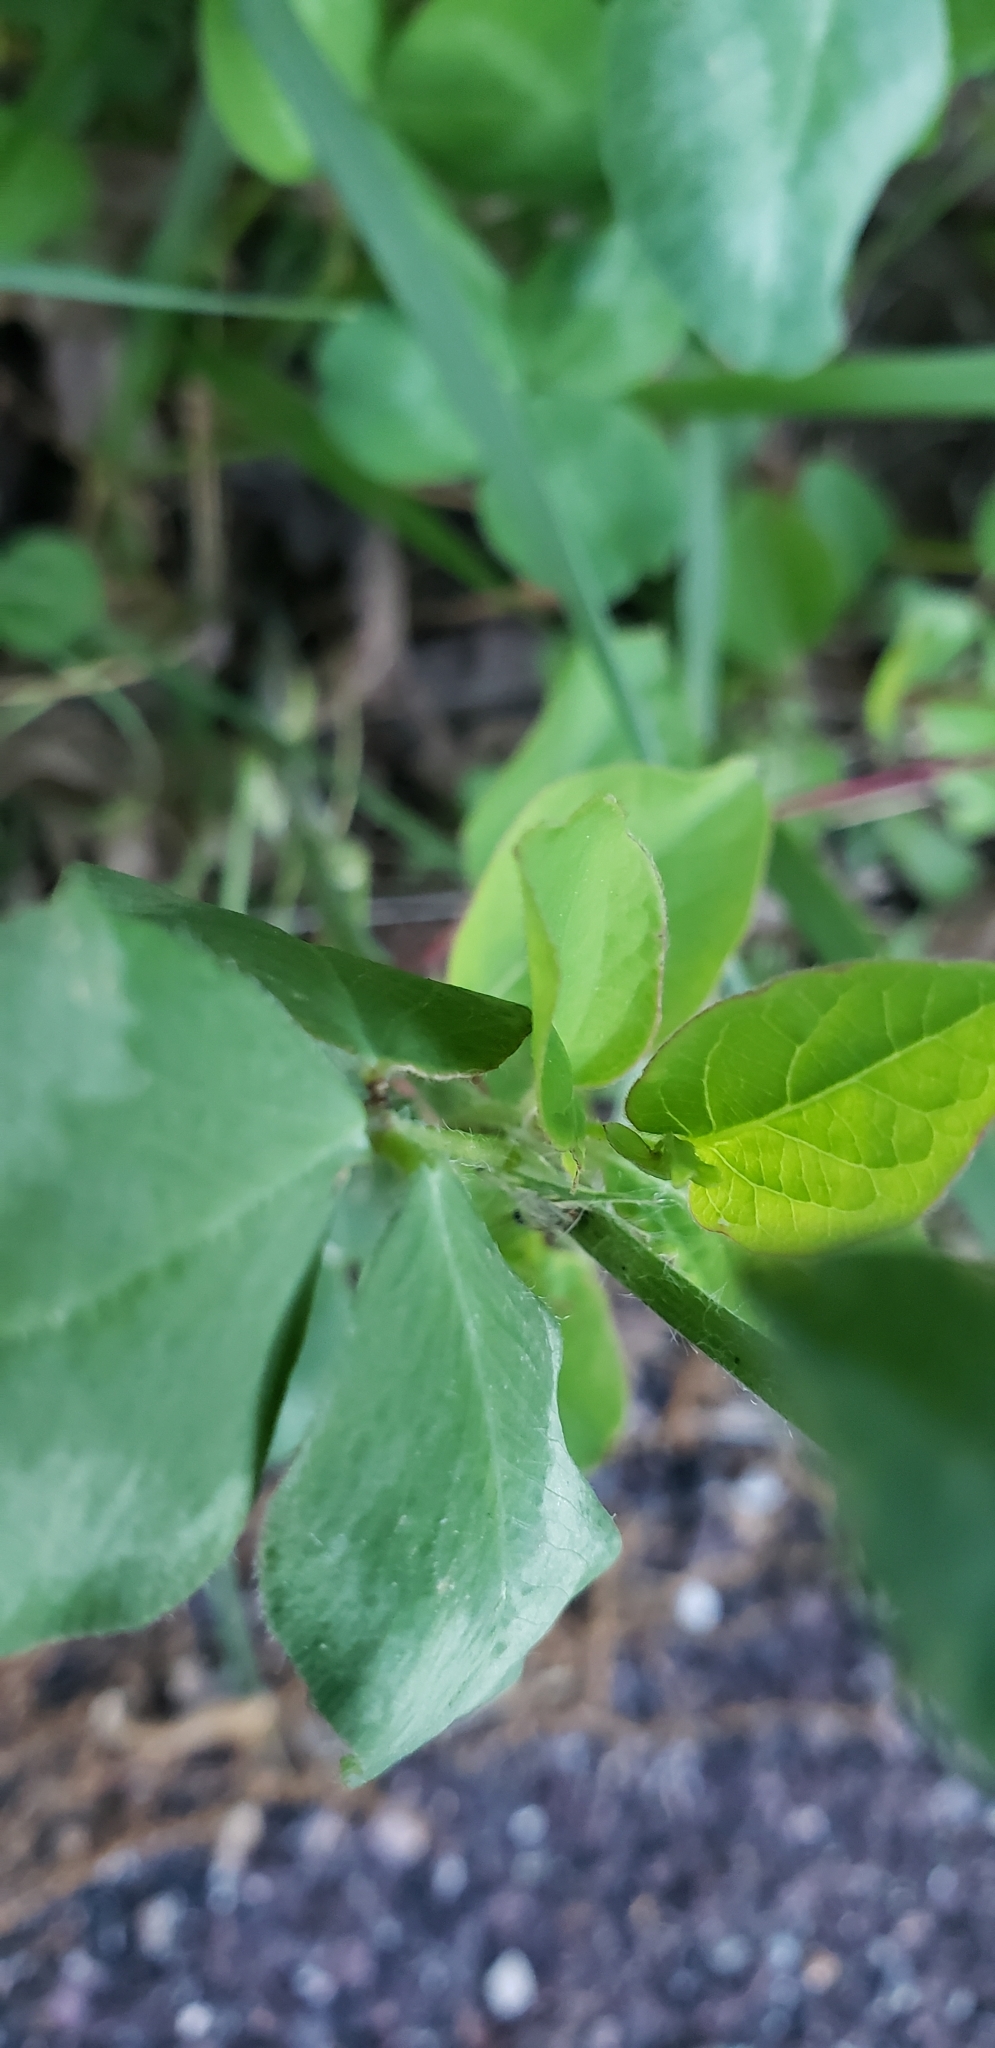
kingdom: Plantae
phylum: Tracheophyta
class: Magnoliopsida
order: Fabales
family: Fabaceae
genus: Trifolium
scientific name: Trifolium pratense
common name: Red clover
